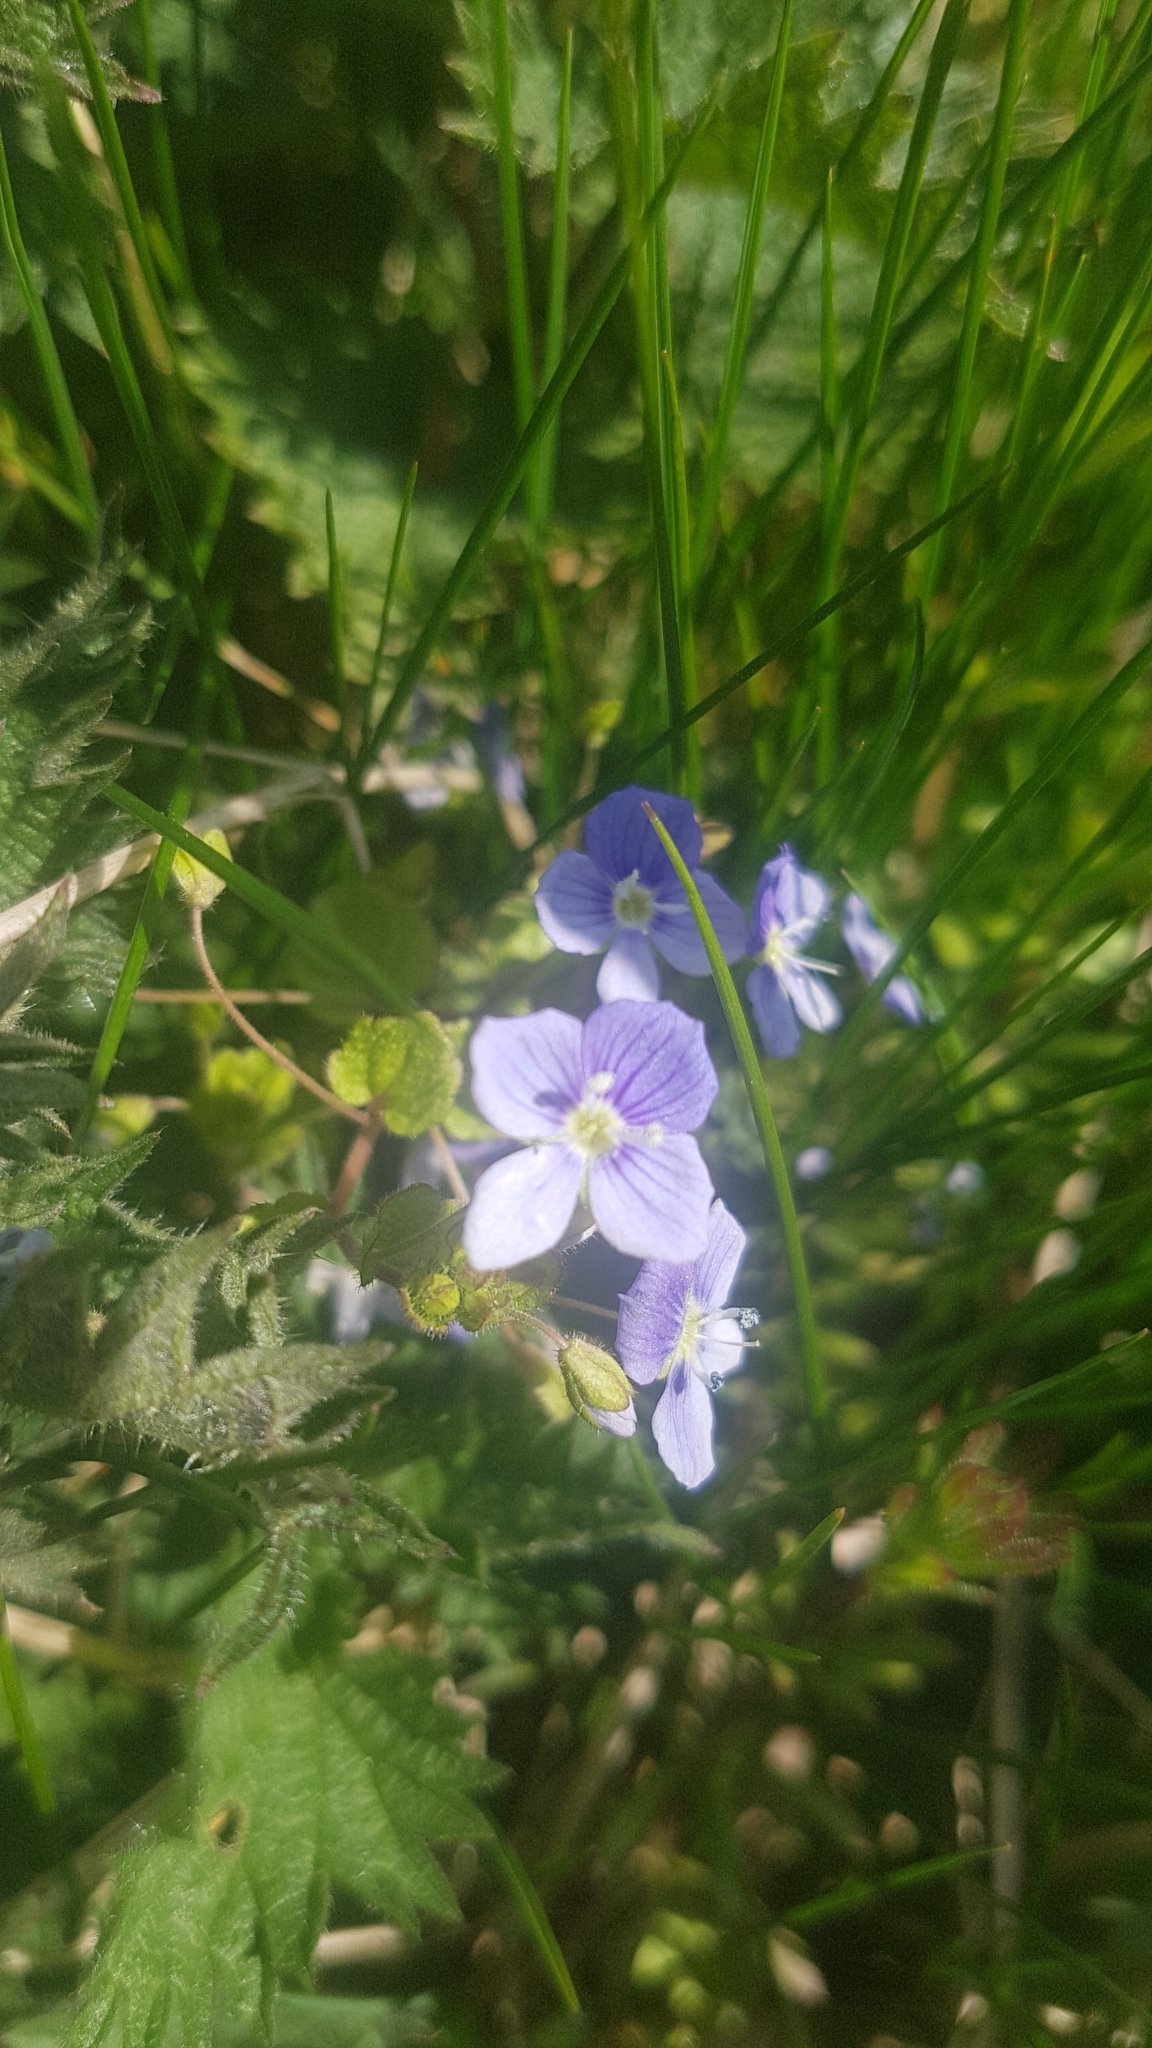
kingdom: Plantae
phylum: Tracheophyta
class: Magnoliopsida
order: Lamiales
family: Plantaginaceae
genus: Veronica
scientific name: Veronica filiformis
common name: Slender speedwell
